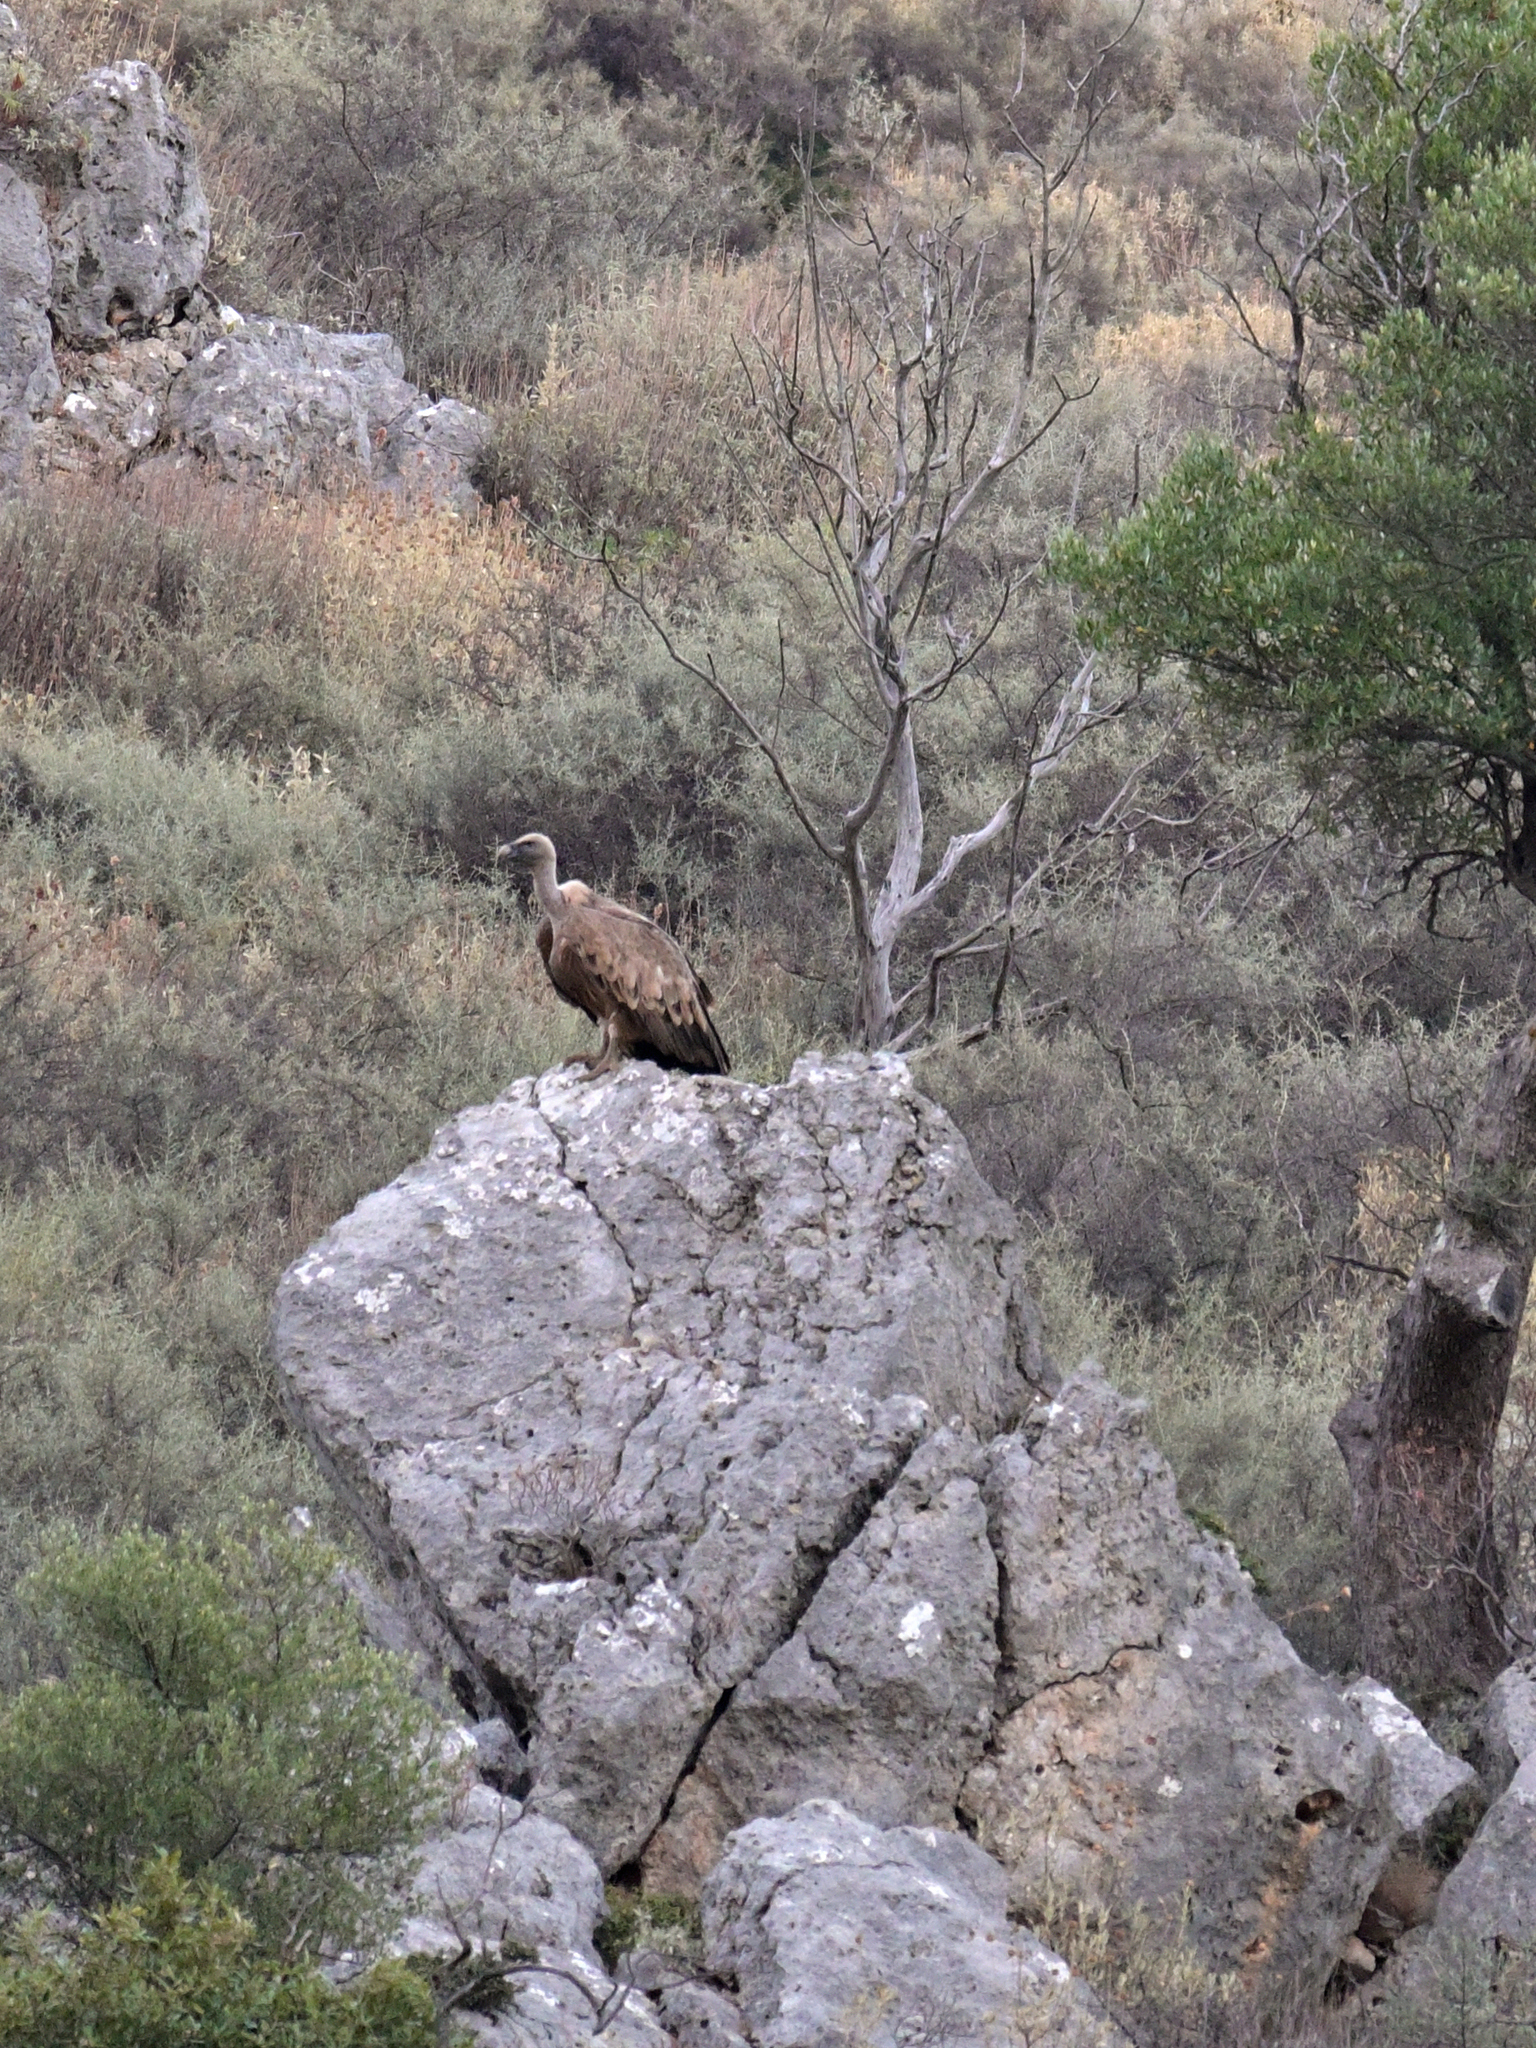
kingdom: Animalia
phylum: Chordata
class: Aves
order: Accipitriformes
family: Accipitridae
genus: Gyps
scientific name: Gyps fulvus
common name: Griffon vulture
